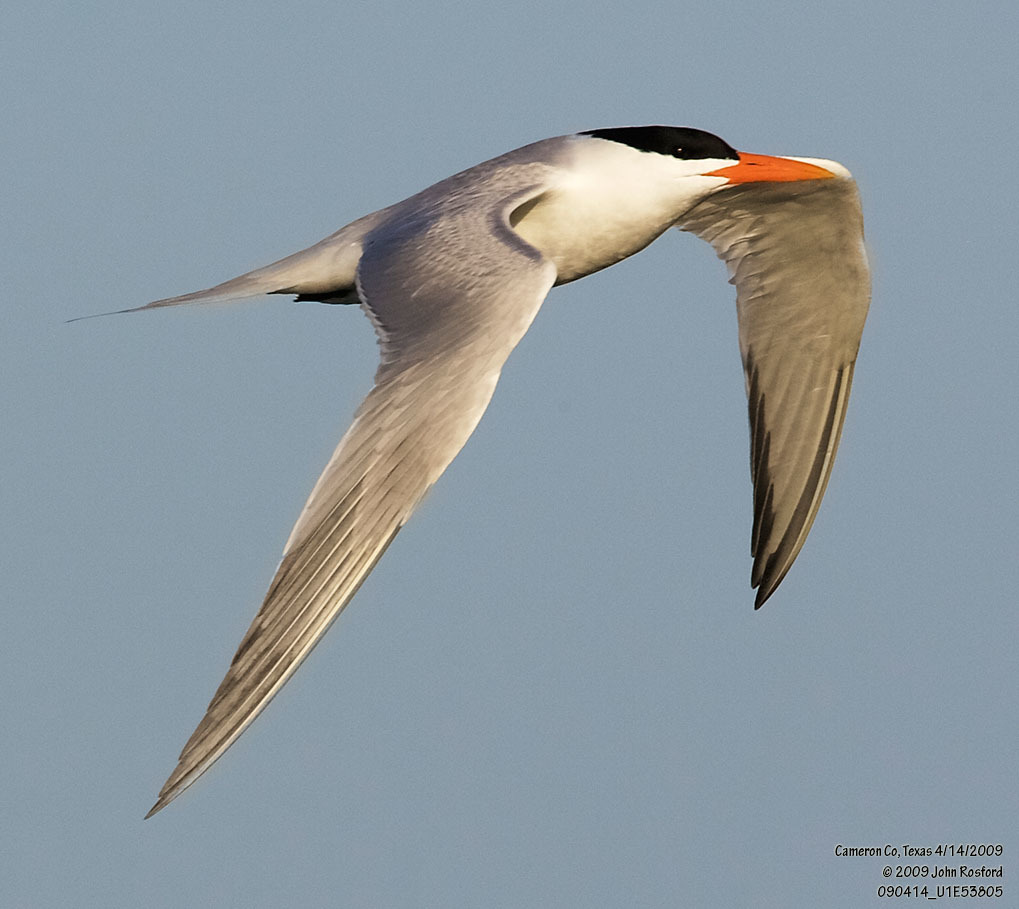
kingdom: Animalia
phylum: Chordata
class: Aves
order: Charadriiformes
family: Laridae
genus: Thalasseus
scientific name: Thalasseus maximus
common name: Royal tern
